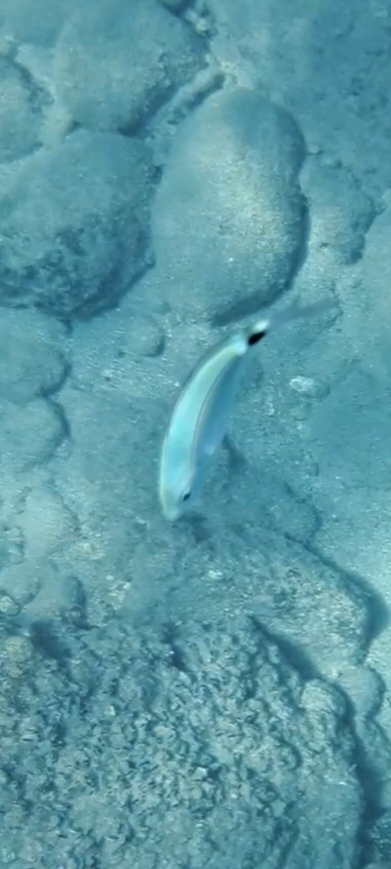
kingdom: Animalia
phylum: Chordata
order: Perciformes
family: Sparidae
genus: Oblada
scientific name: Oblada melanura
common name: Saddled seabream
